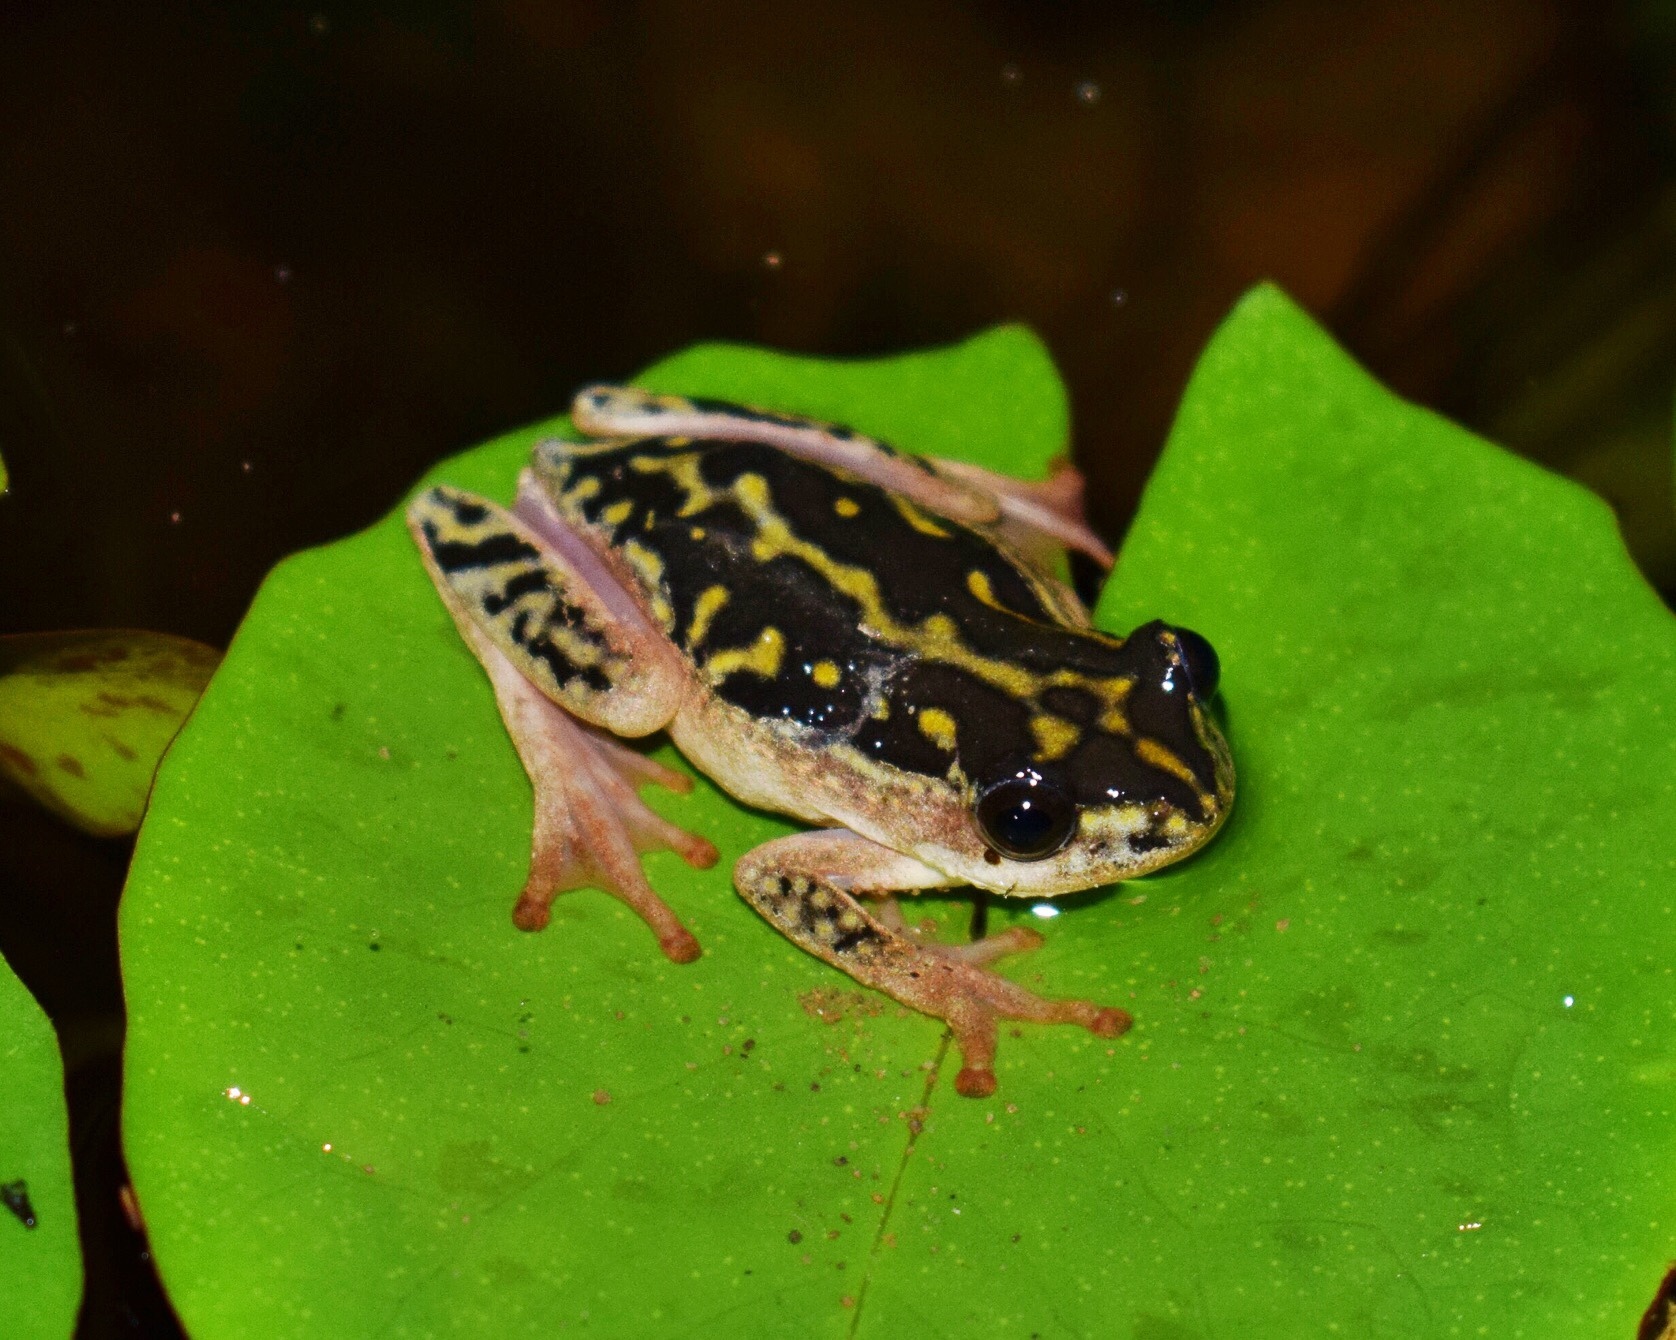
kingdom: Animalia
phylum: Chordata
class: Amphibia
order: Anura
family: Hyperoliidae
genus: Hyperolius
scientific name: Hyperolius marmoratus
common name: Painted reed frog
